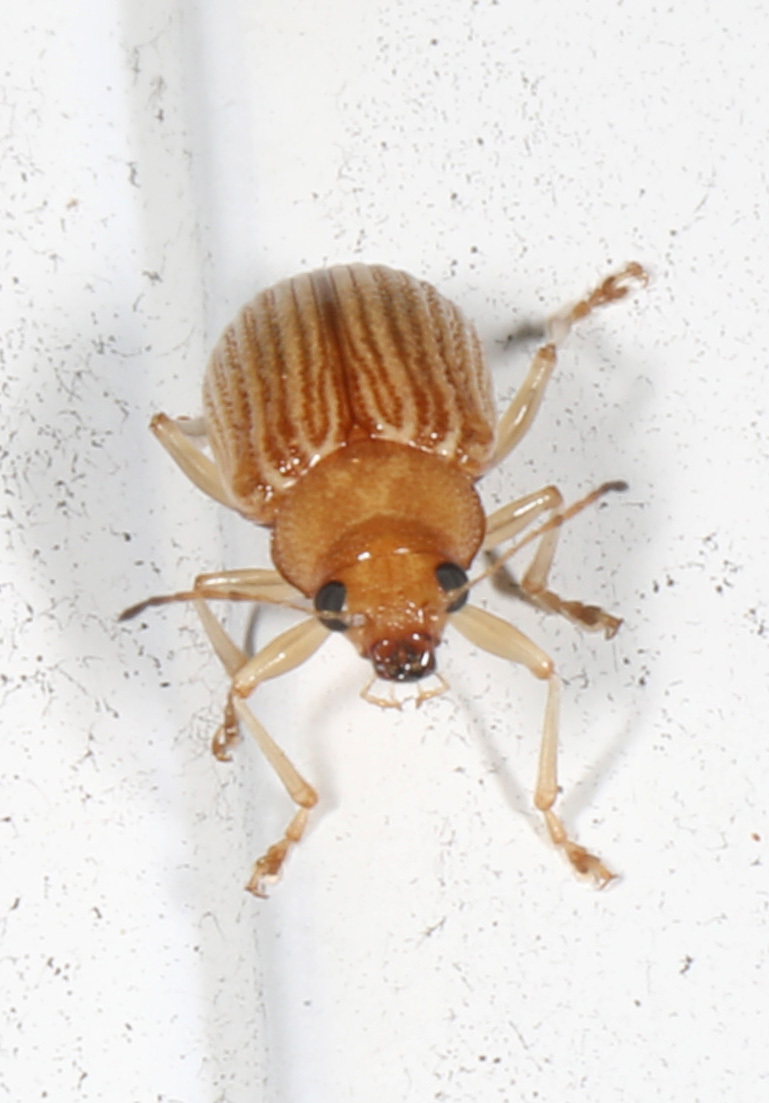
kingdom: Animalia
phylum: Arthropoda
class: Insecta
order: Coleoptera
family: Chrysomelidae
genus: Colaspis
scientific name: Colaspis brunnea
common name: Grape colaspis
